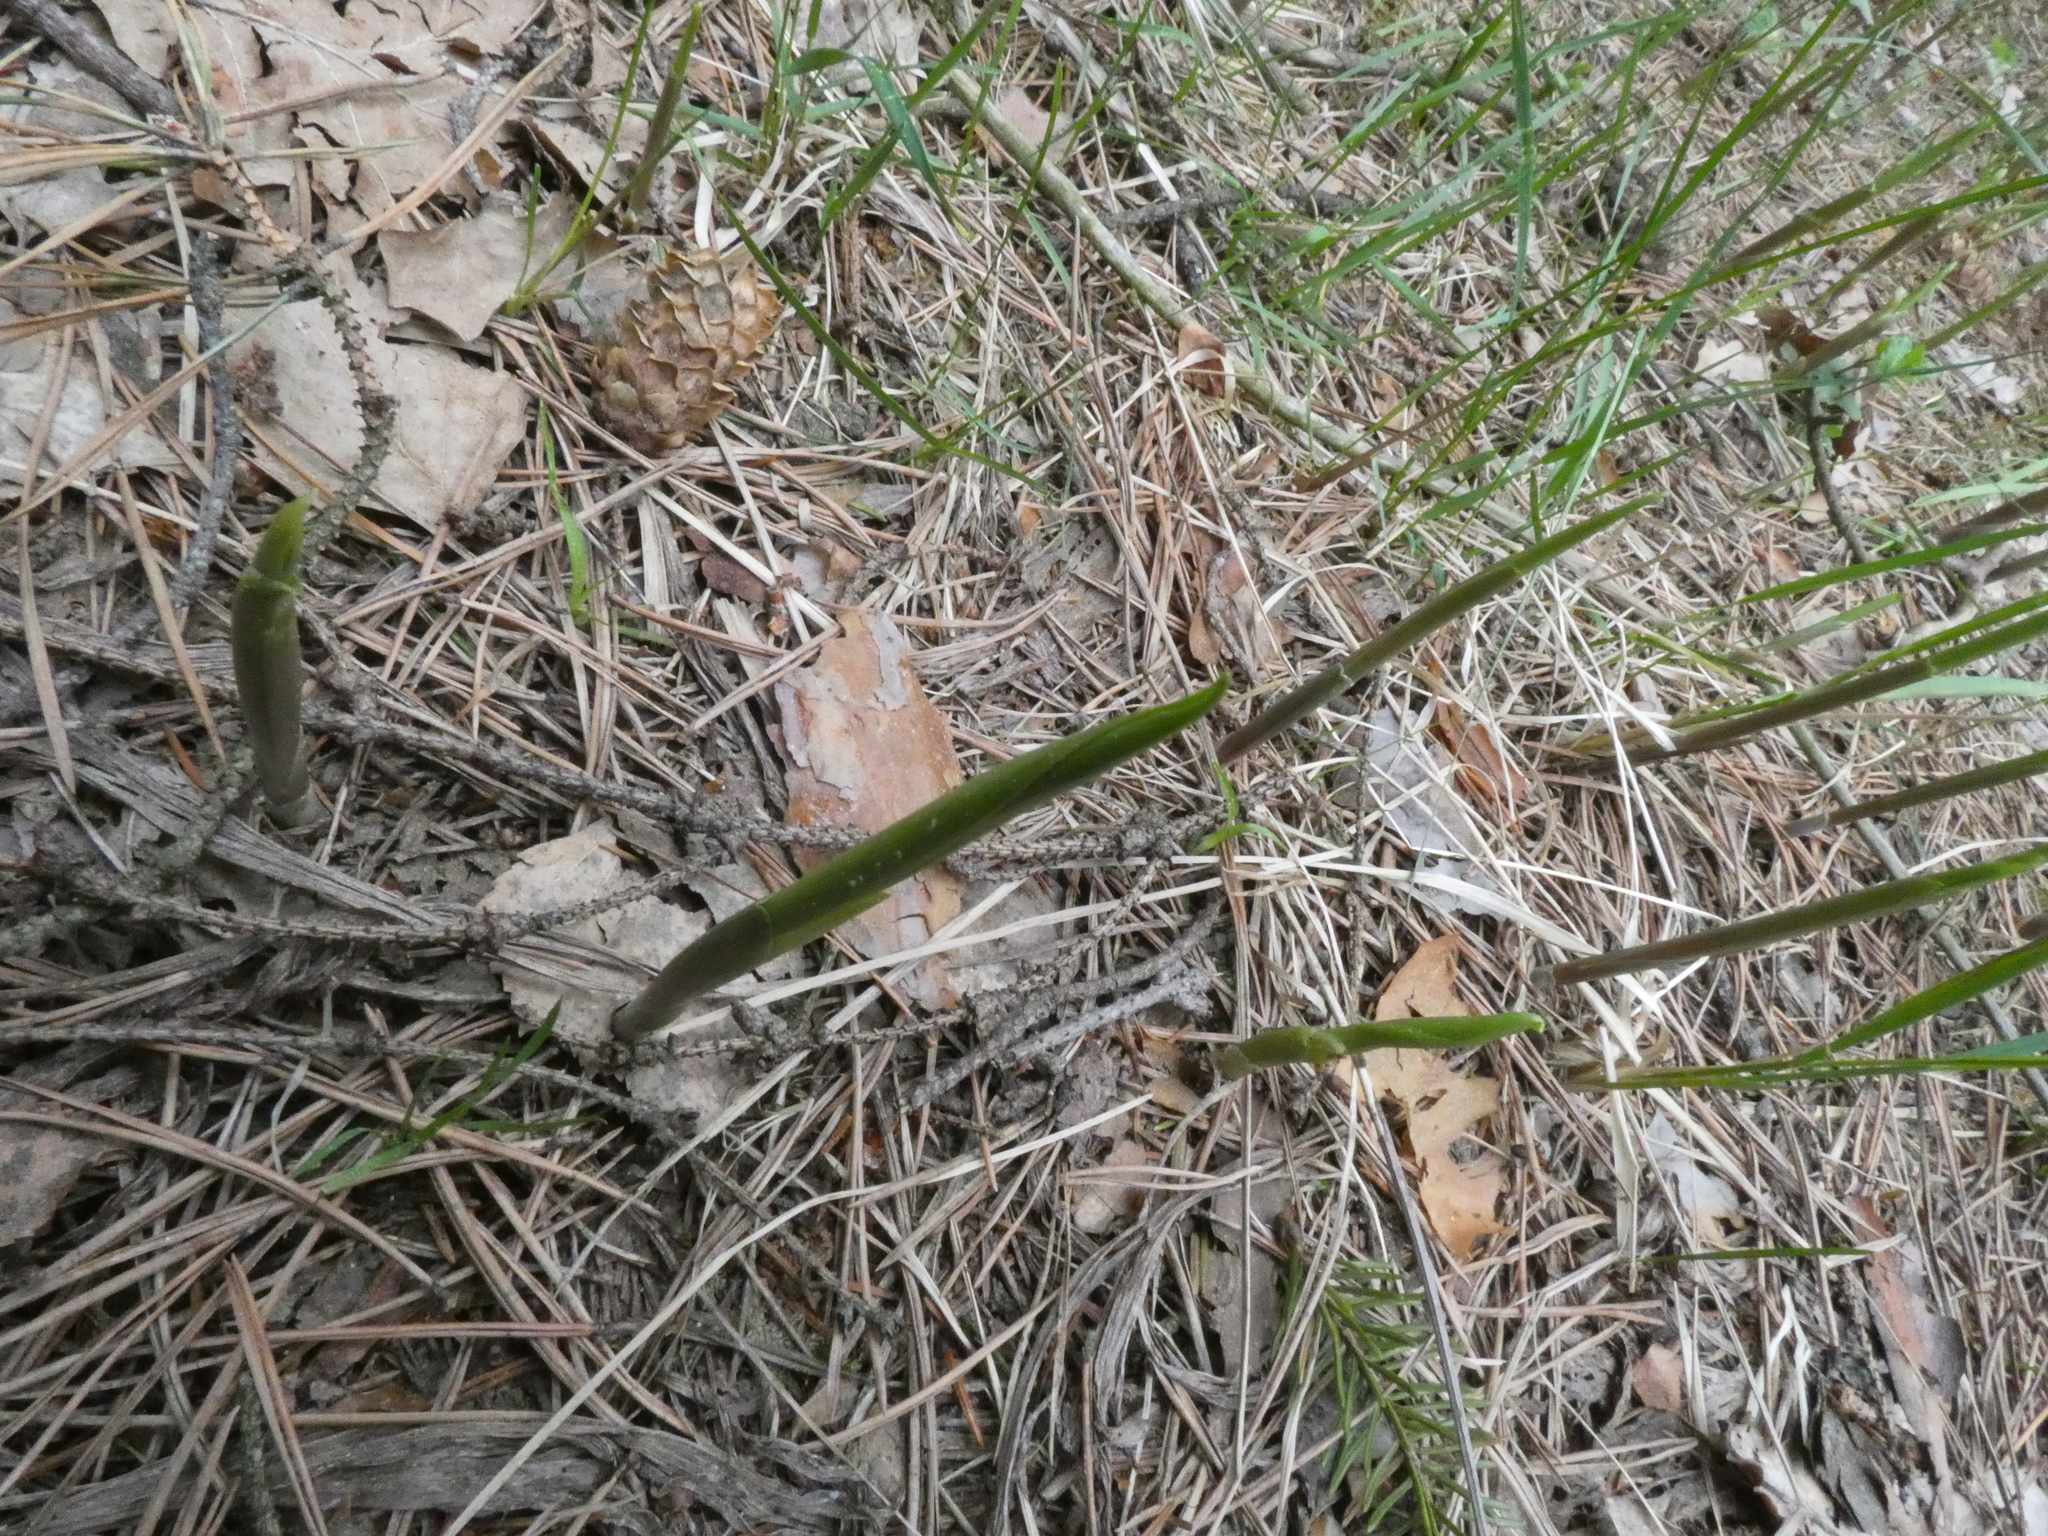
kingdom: Plantae
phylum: Tracheophyta
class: Liliopsida
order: Asparagales
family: Asparagaceae
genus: Convallaria
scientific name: Convallaria majalis
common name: Lily-of-the-valley
